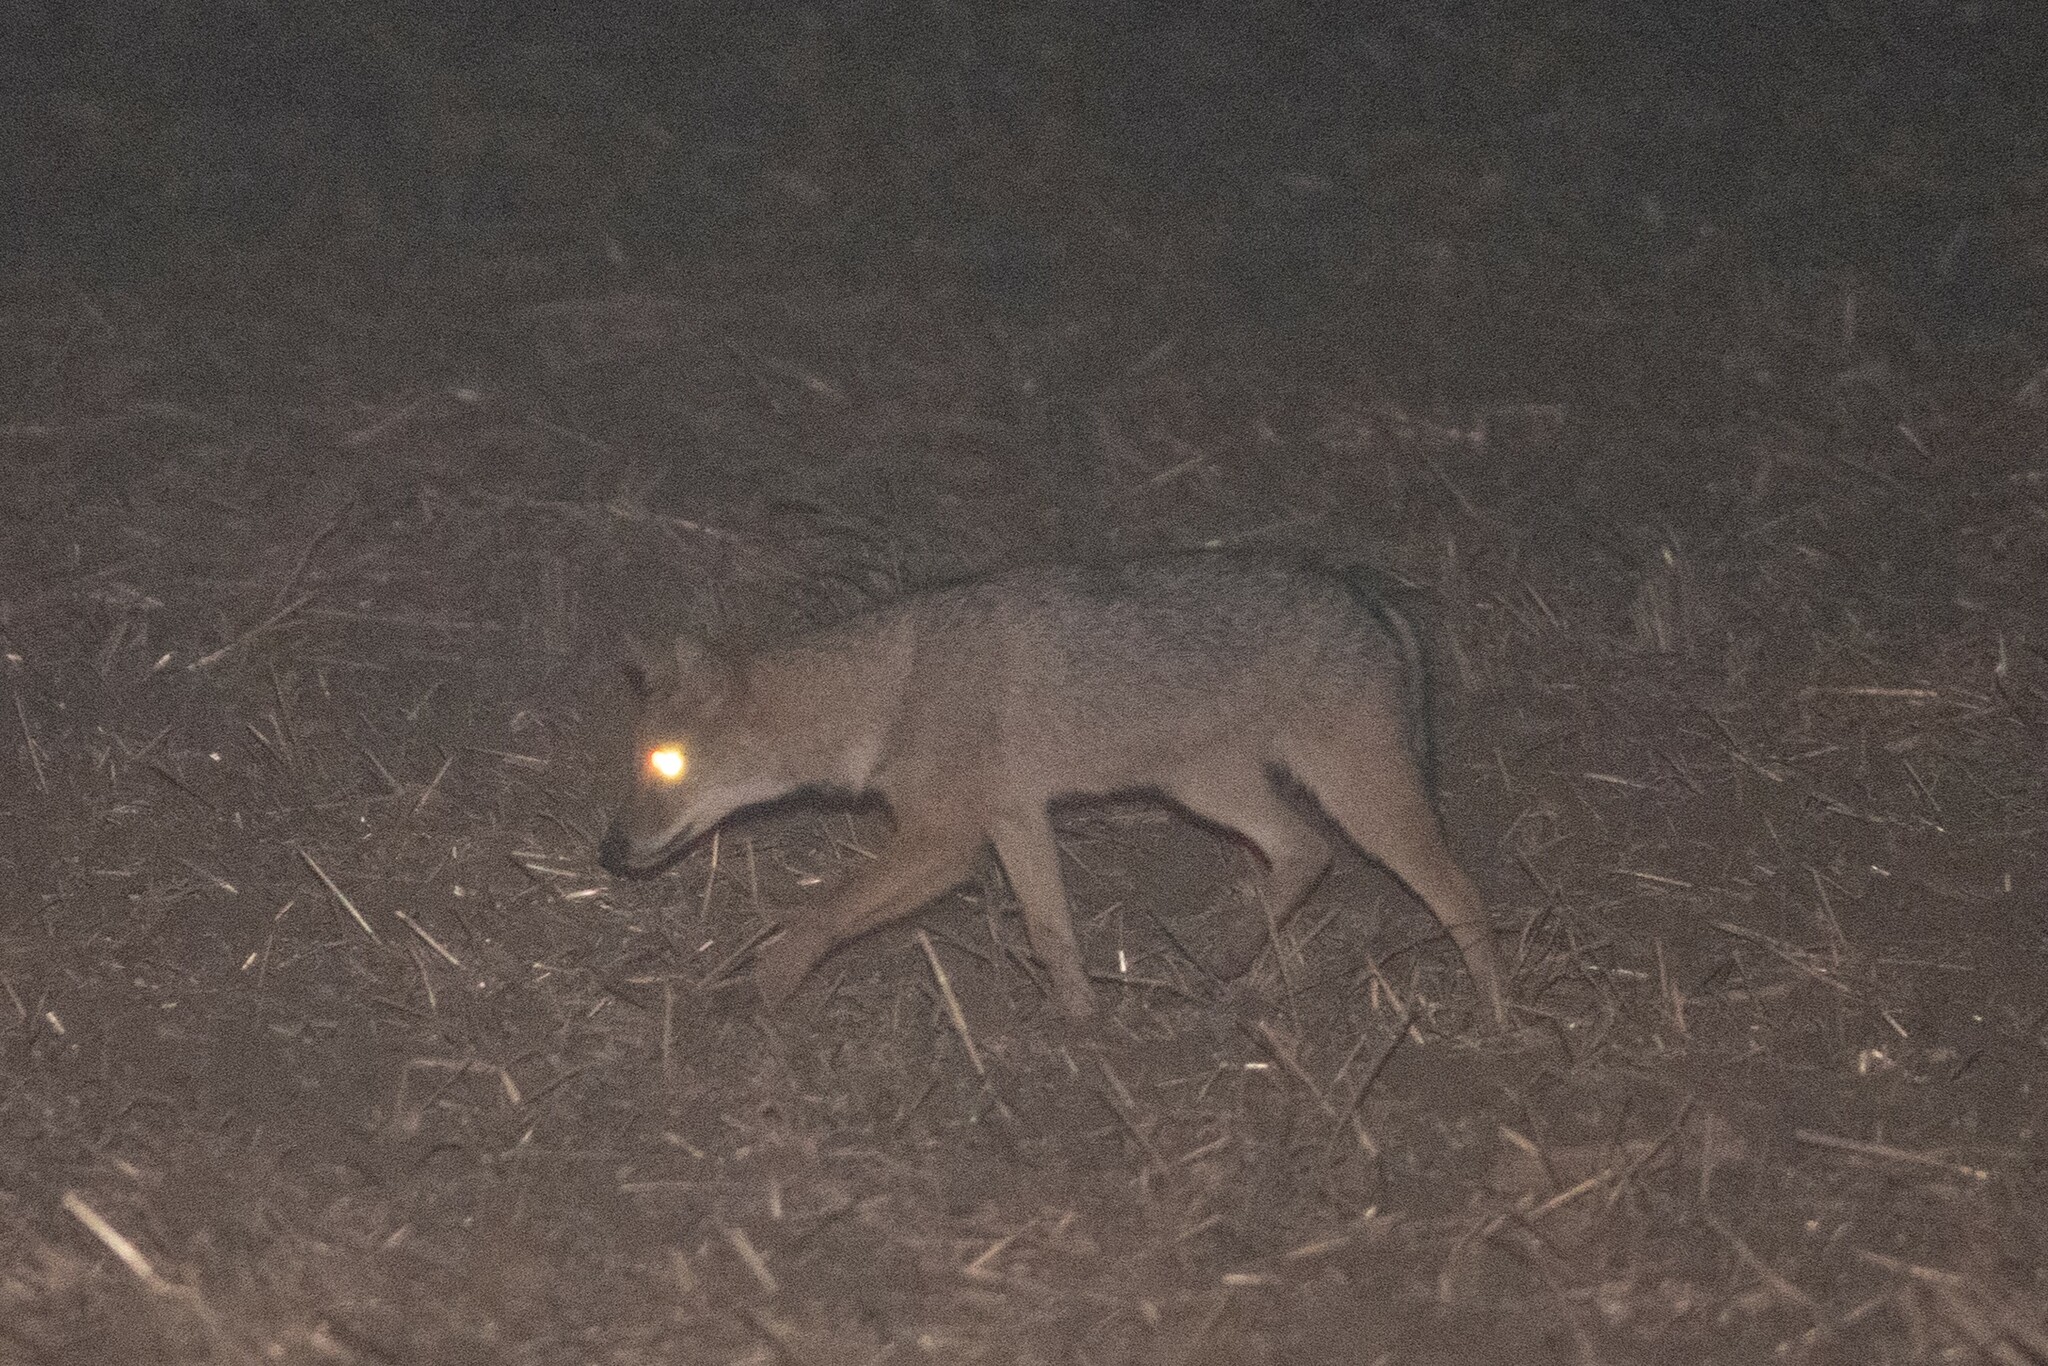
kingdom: Animalia
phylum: Chordata
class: Mammalia
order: Carnivora
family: Canidae
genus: Canis
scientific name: Canis aureus
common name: Golden jackal
